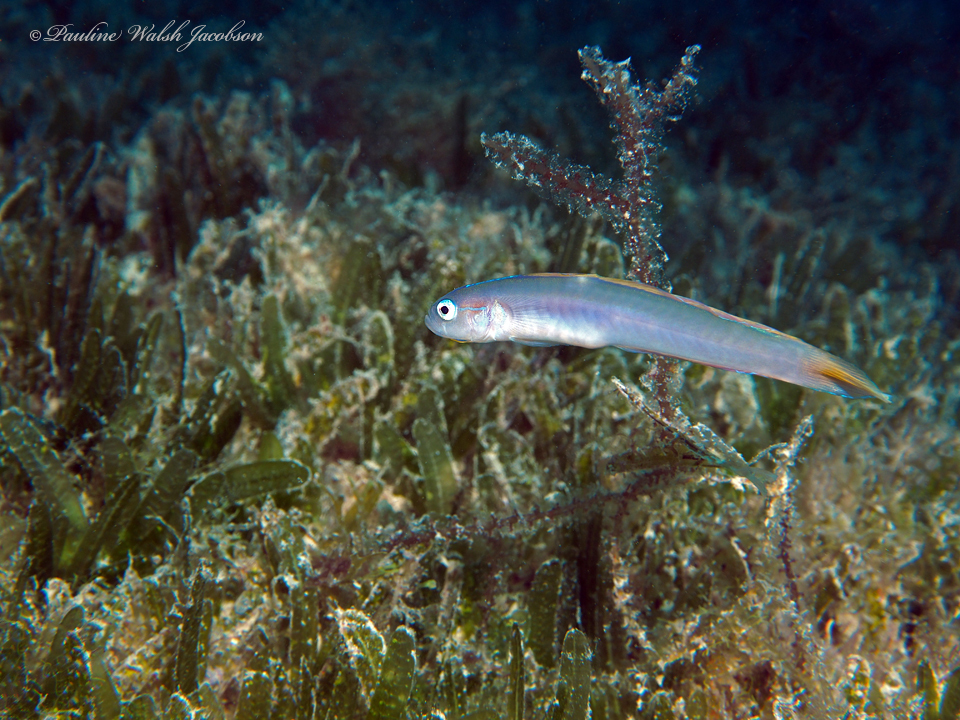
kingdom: Animalia
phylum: Chordata
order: Perciformes
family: Microdesmidae
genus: Ptereleotris
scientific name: Ptereleotris helenae
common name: Hovering goby
